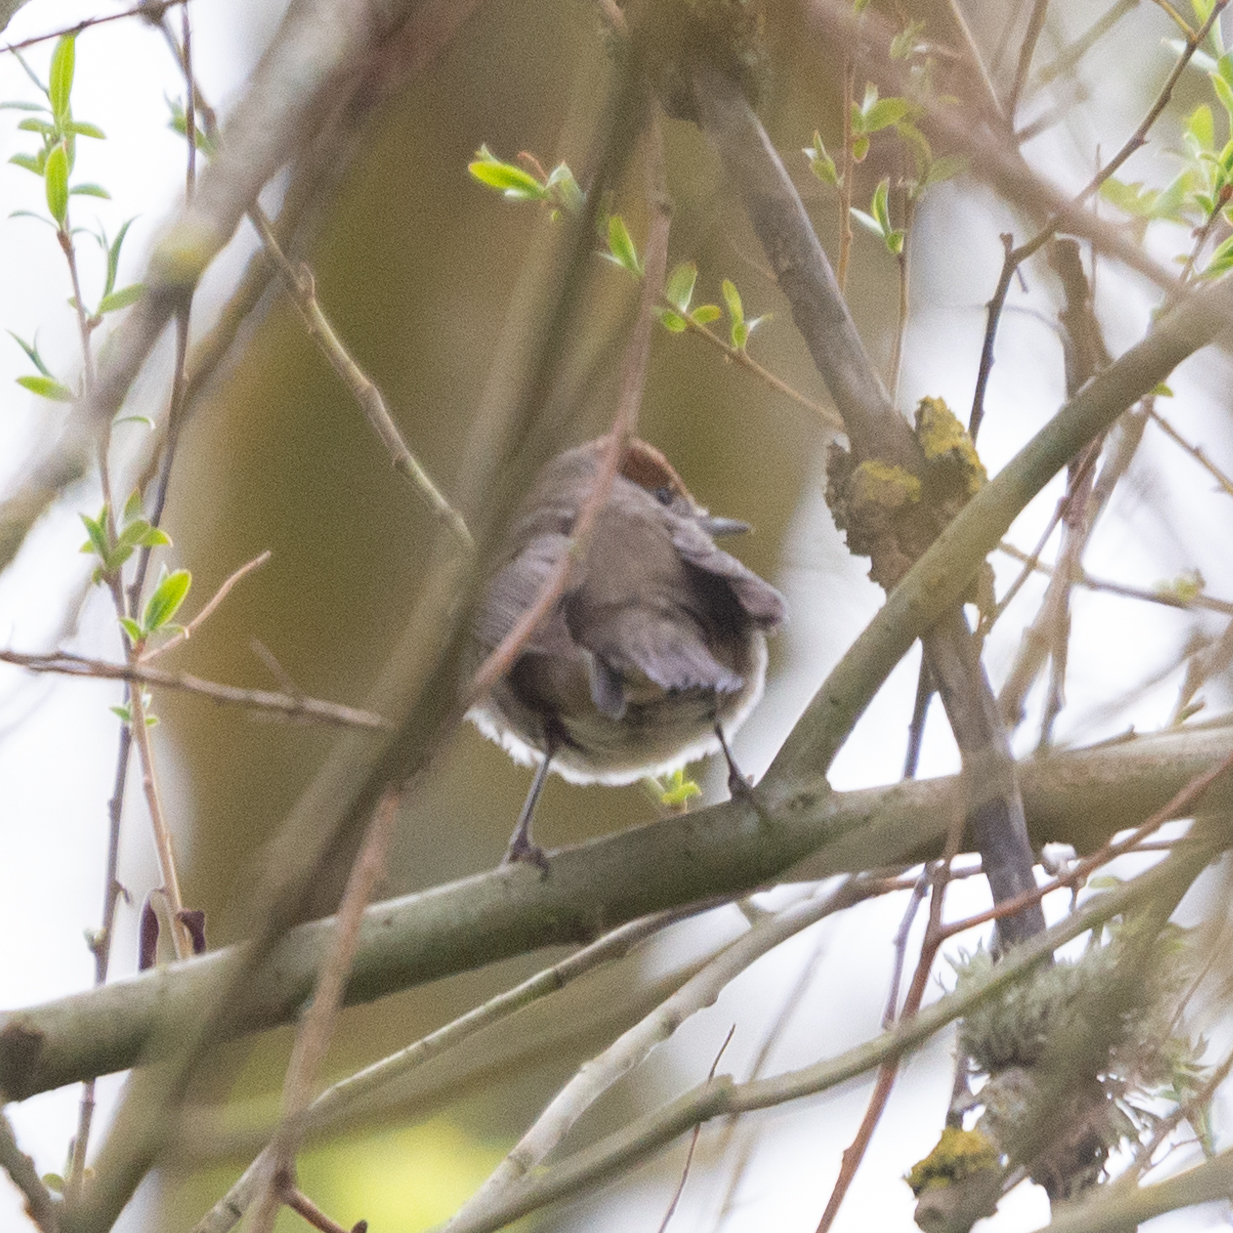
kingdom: Animalia
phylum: Chordata
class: Aves
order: Passeriformes
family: Sylviidae
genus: Sylvia
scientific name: Sylvia atricapilla
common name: Eurasian blackcap
